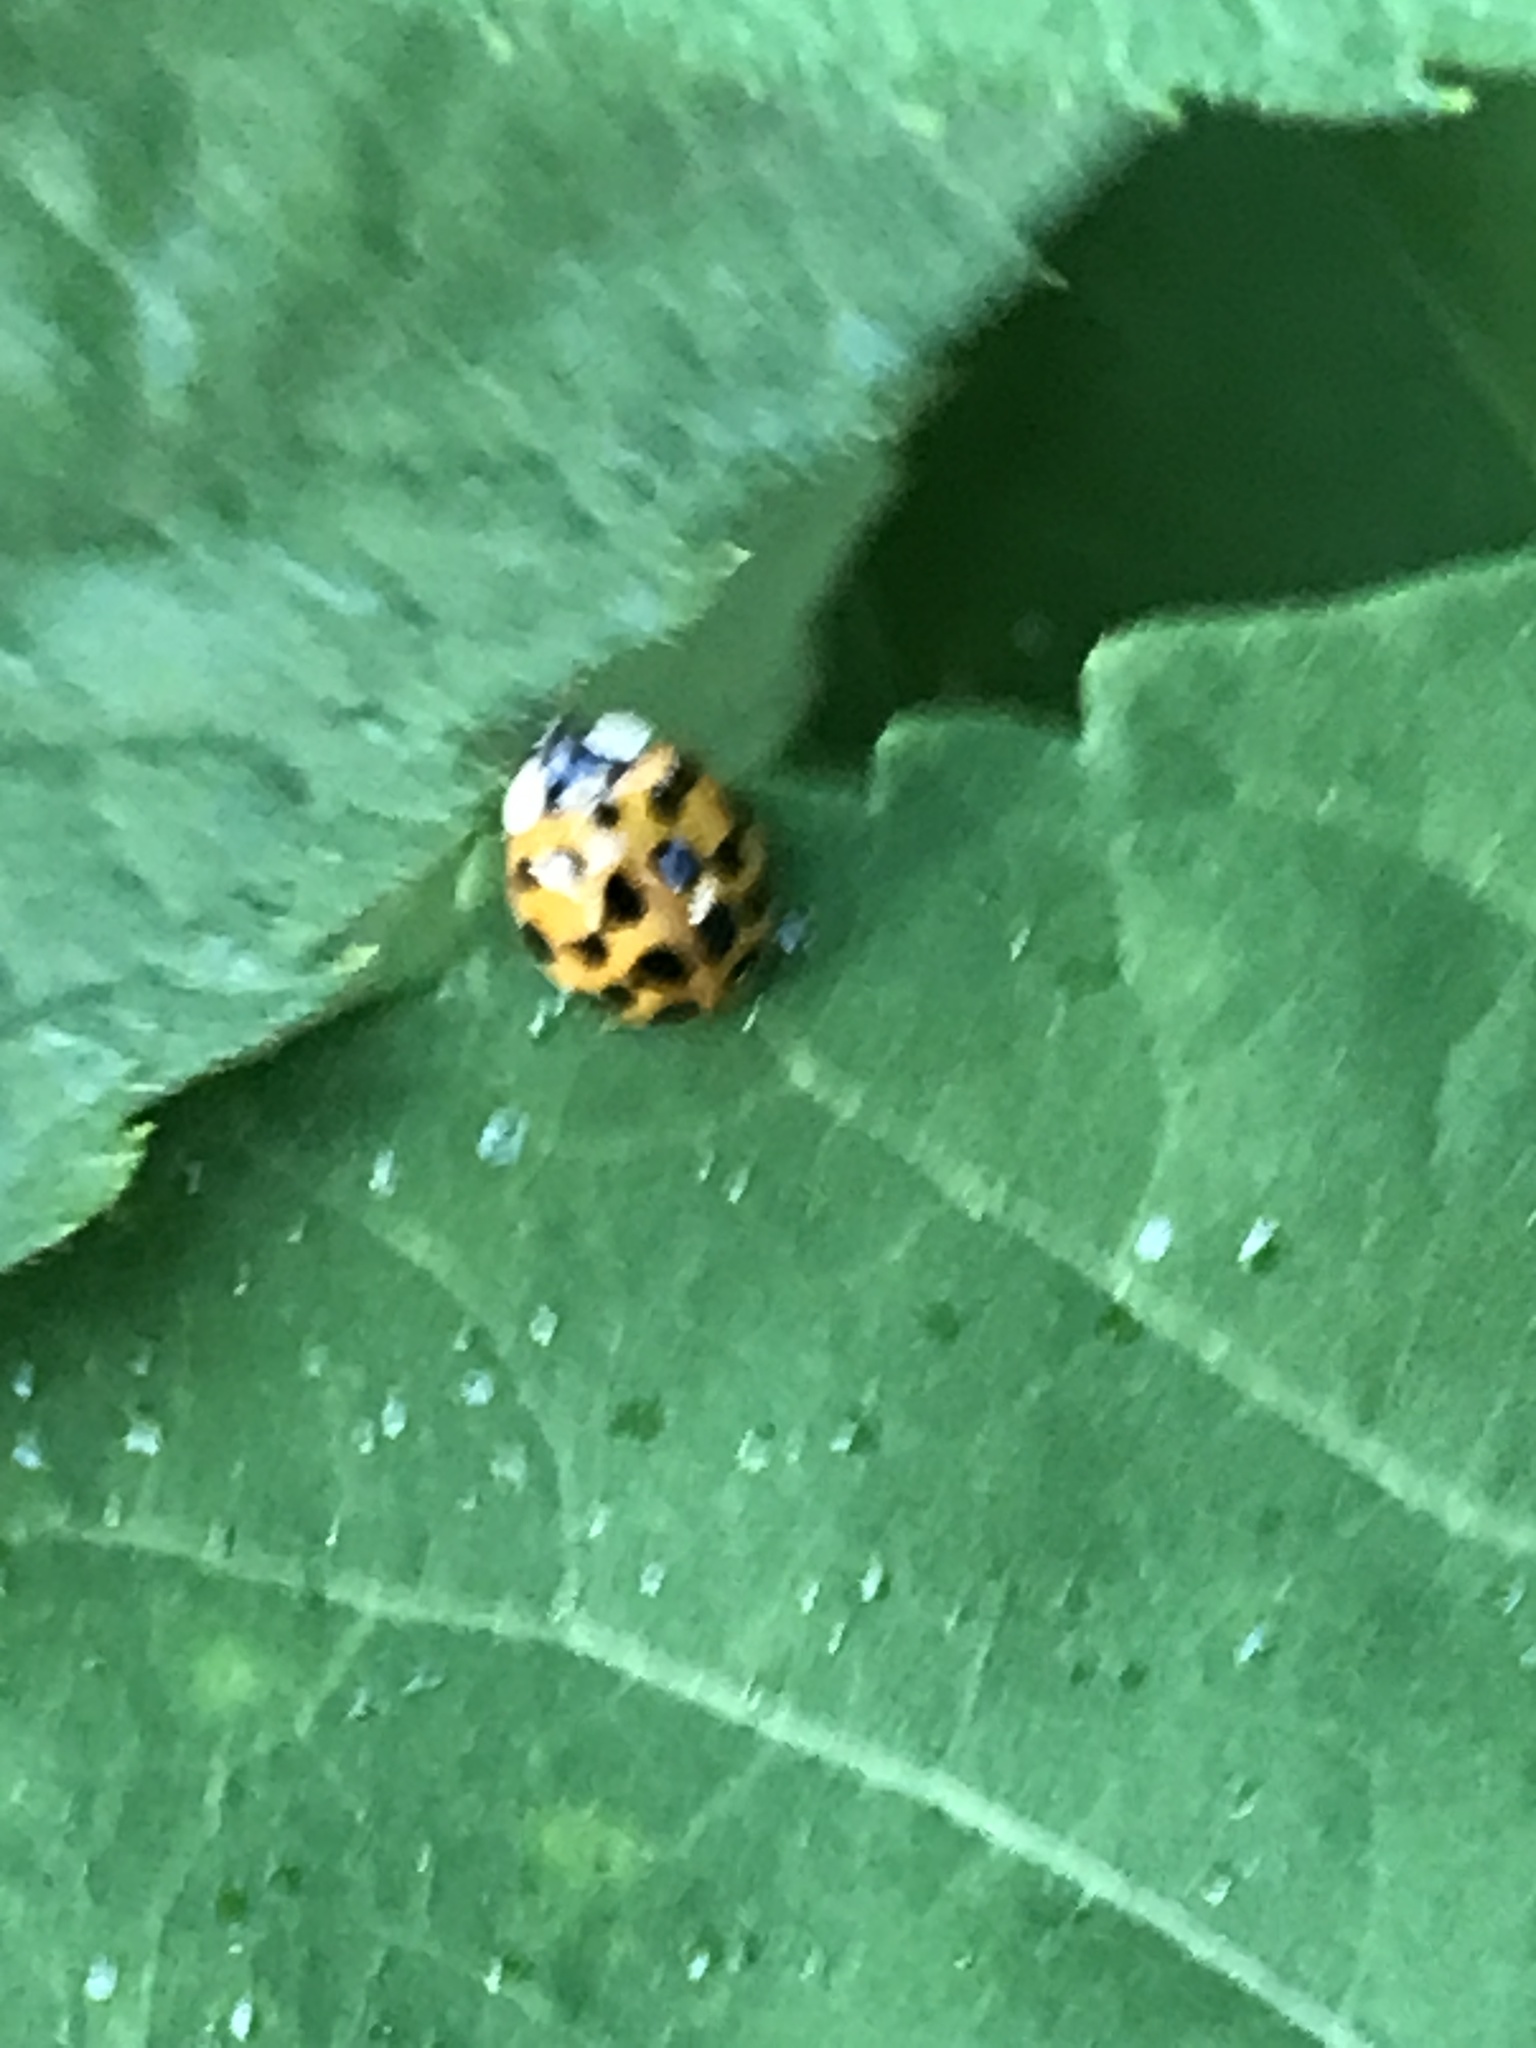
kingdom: Animalia
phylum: Arthropoda
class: Insecta
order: Coleoptera
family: Coccinellidae
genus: Harmonia
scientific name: Harmonia axyridis
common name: Harlequin ladybird
